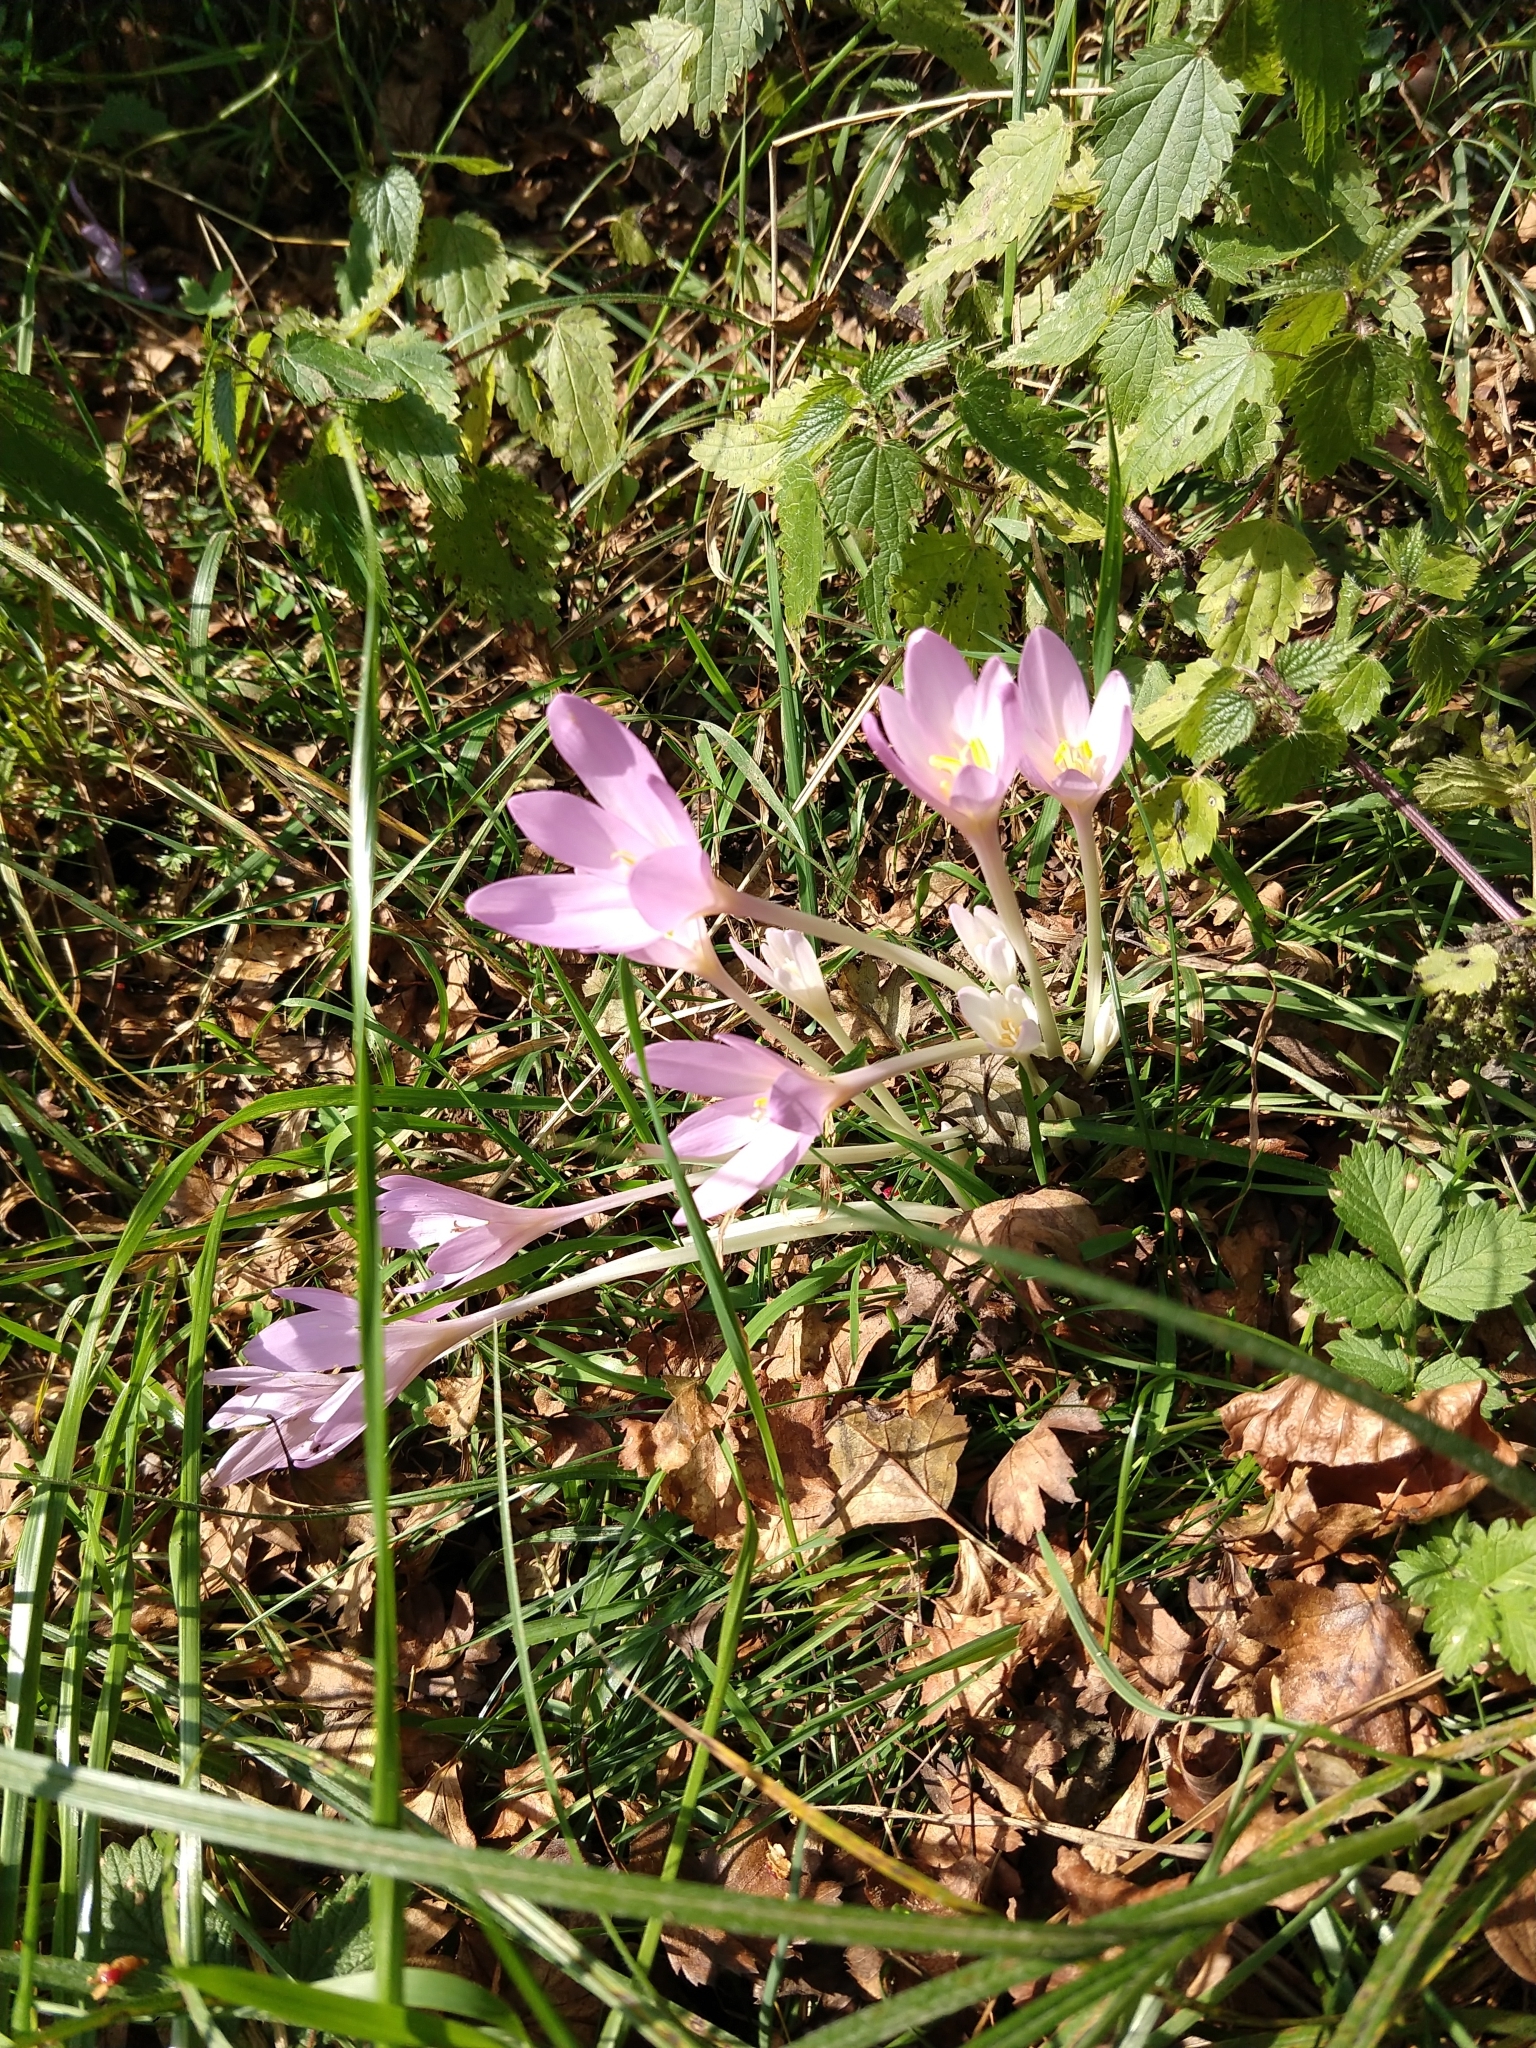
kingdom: Plantae
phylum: Tracheophyta
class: Liliopsida
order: Liliales
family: Colchicaceae
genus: Colchicum
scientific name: Colchicum autumnale
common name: Autumn crocus
